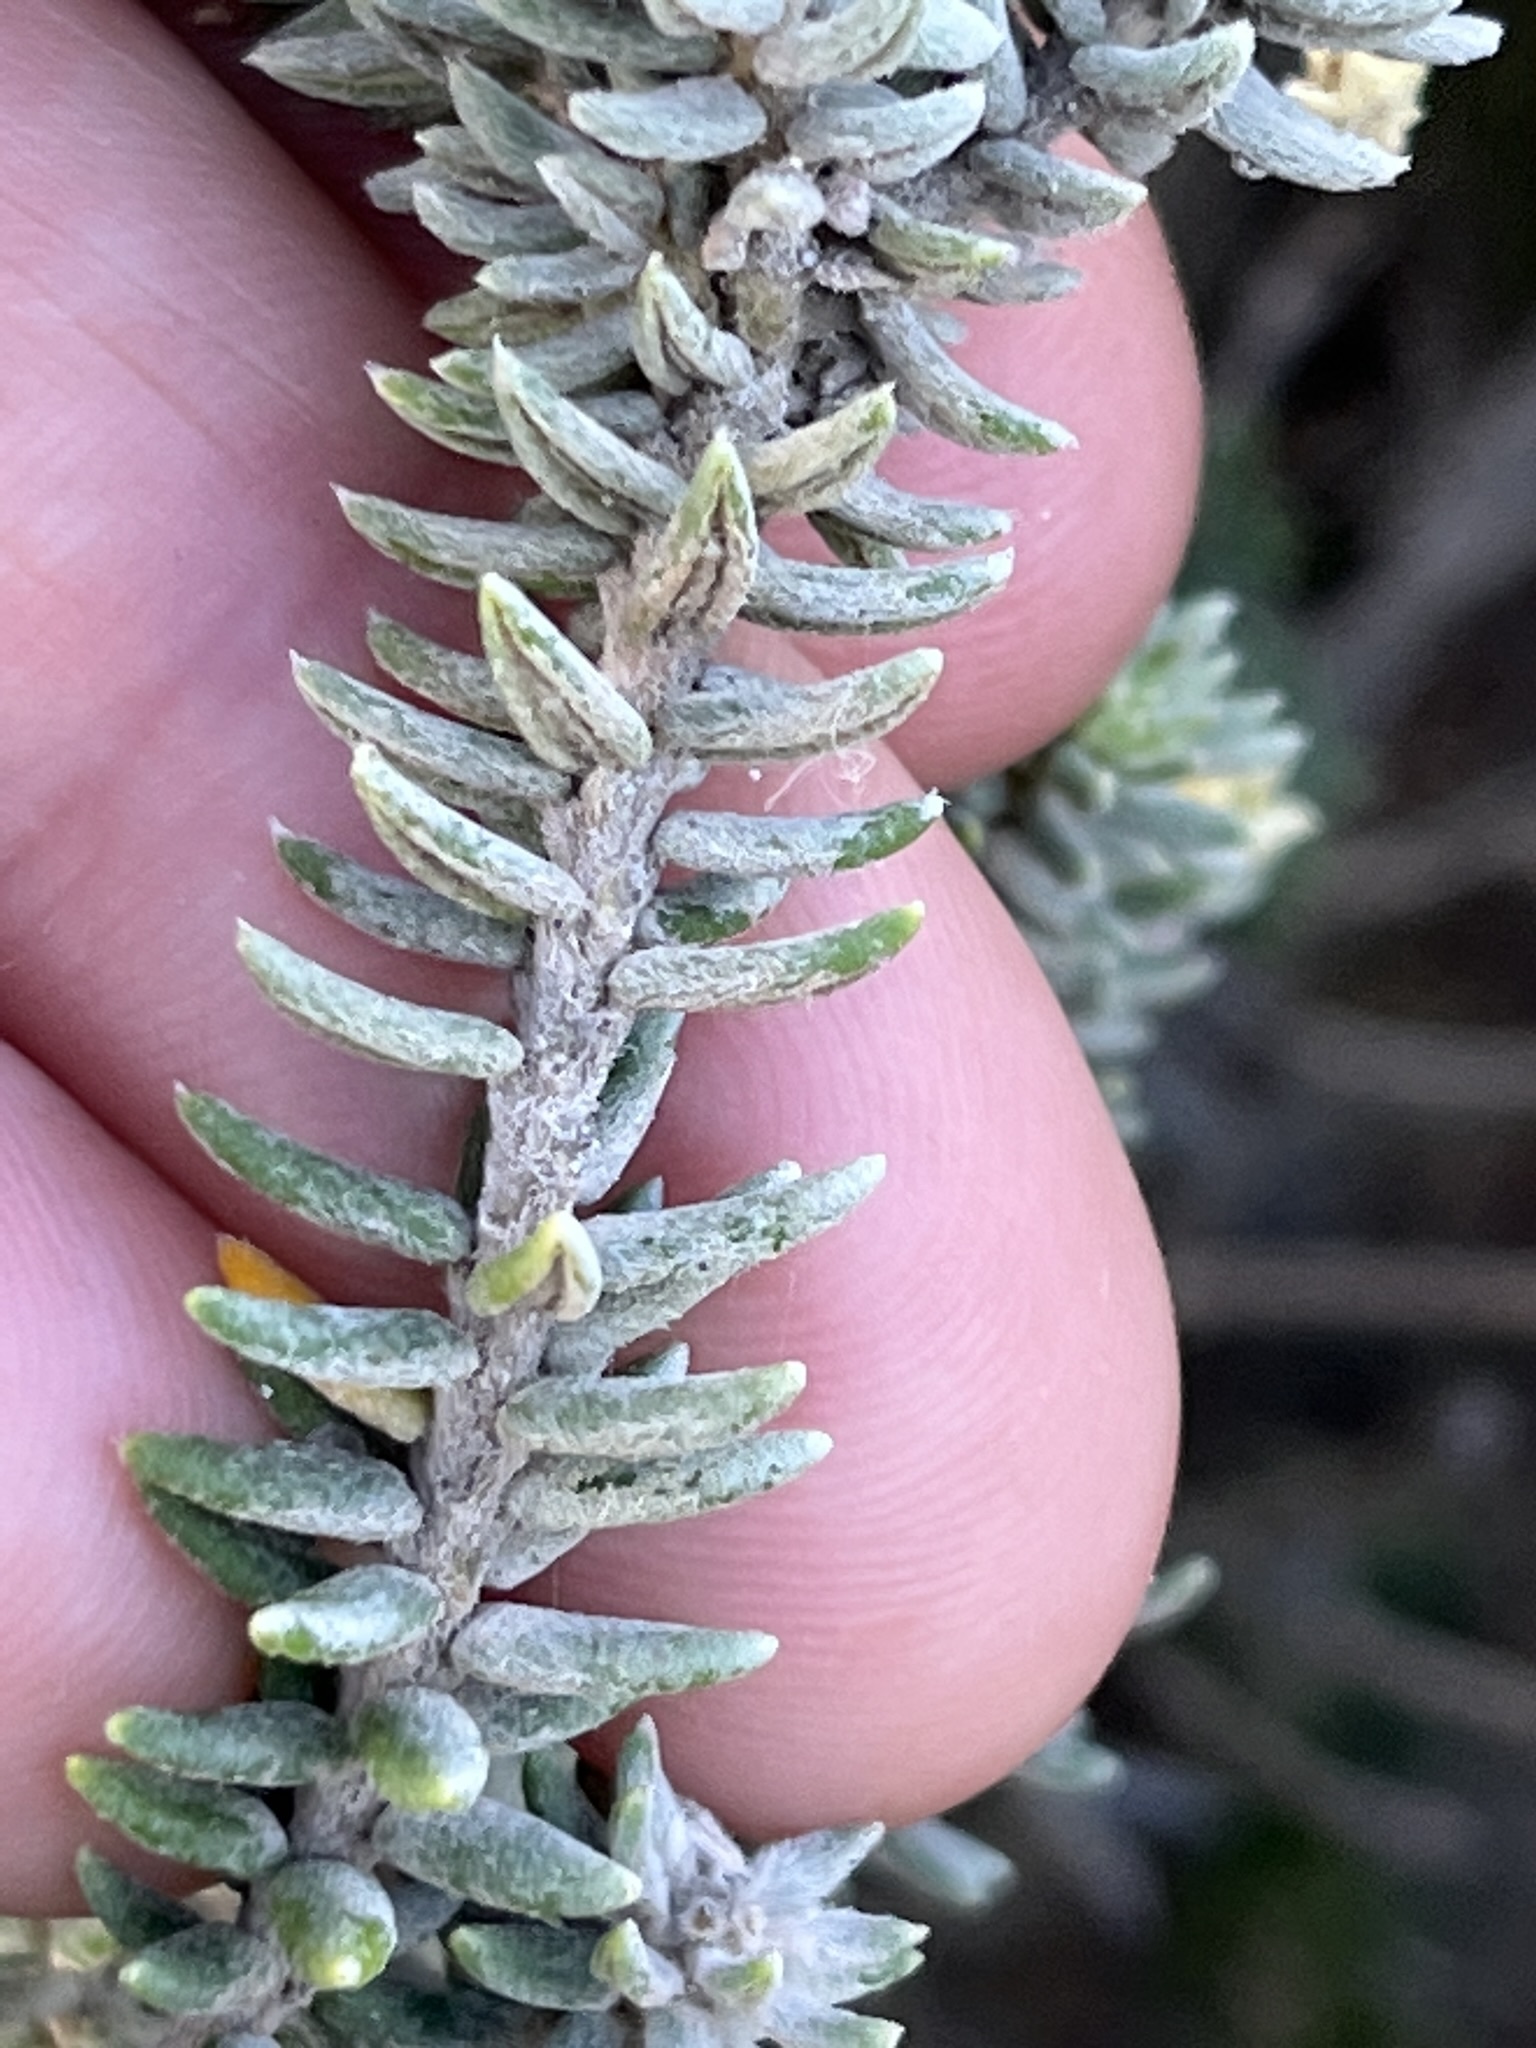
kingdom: Plantae
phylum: Tracheophyta
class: Magnoliopsida
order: Rosales
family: Rhamnaceae
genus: Phylica
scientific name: Phylica axillaris
